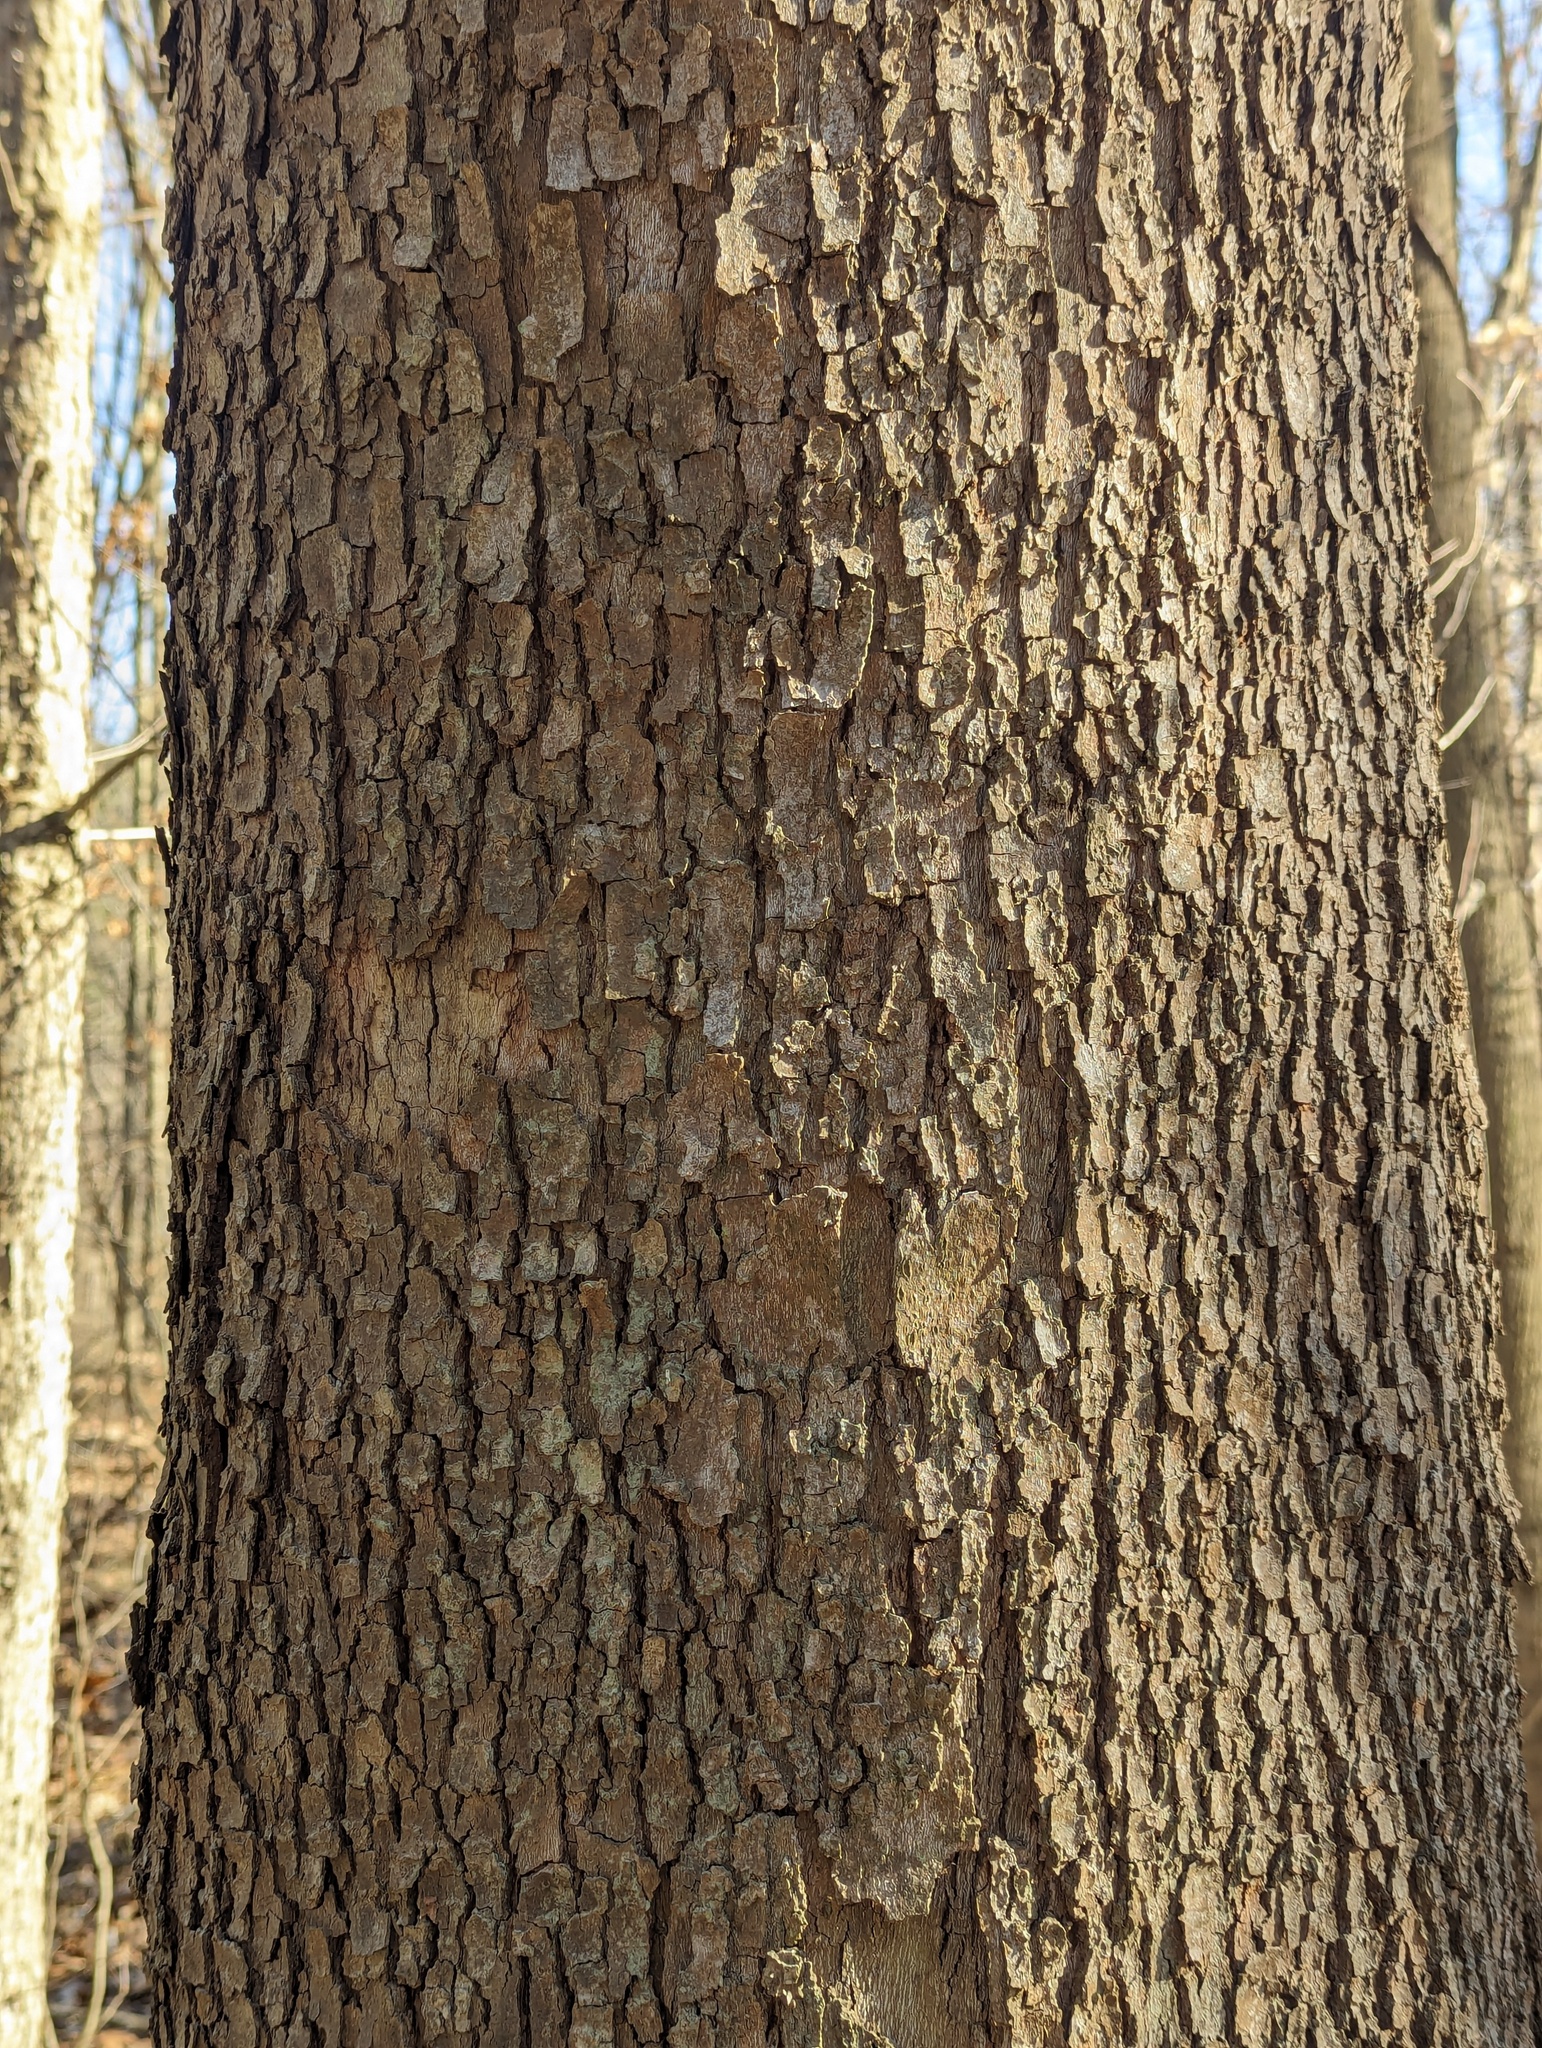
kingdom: Plantae
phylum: Tracheophyta
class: Magnoliopsida
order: Proteales
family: Platanaceae
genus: Platanus
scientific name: Platanus occidentalis
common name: American sycamore
